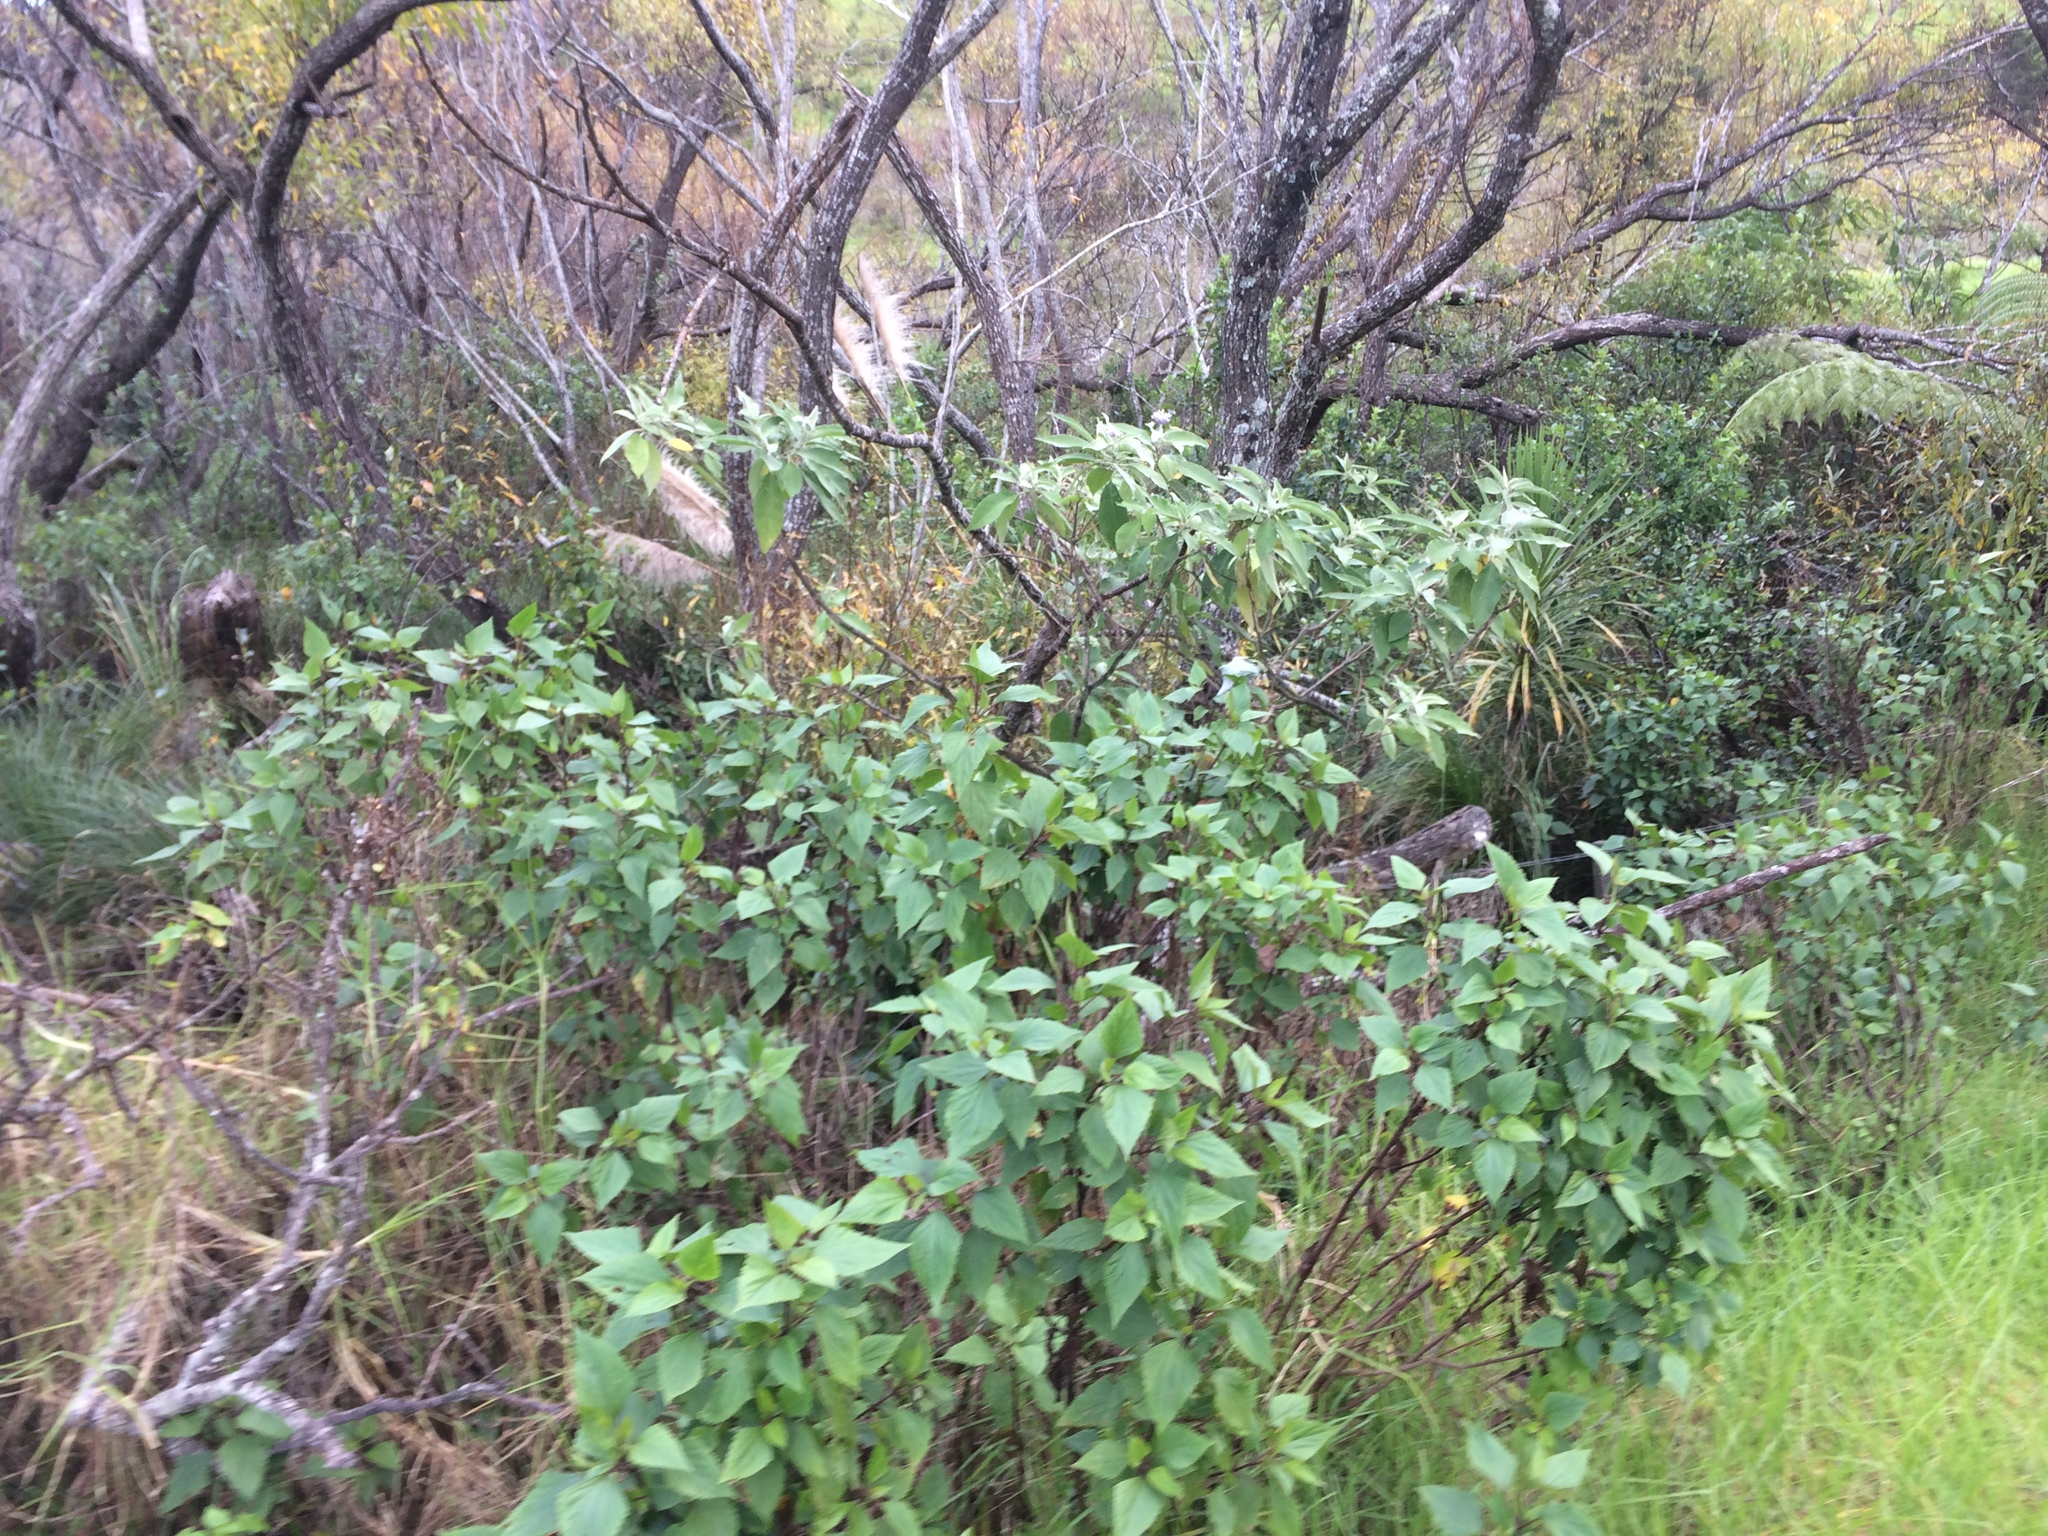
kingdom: Plantae
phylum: Tracheophyta
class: Magnoliopsida
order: Asterales
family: Asteraceae
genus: Ageratina
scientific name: Ageratina adenophora
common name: Sticky snakeroot
